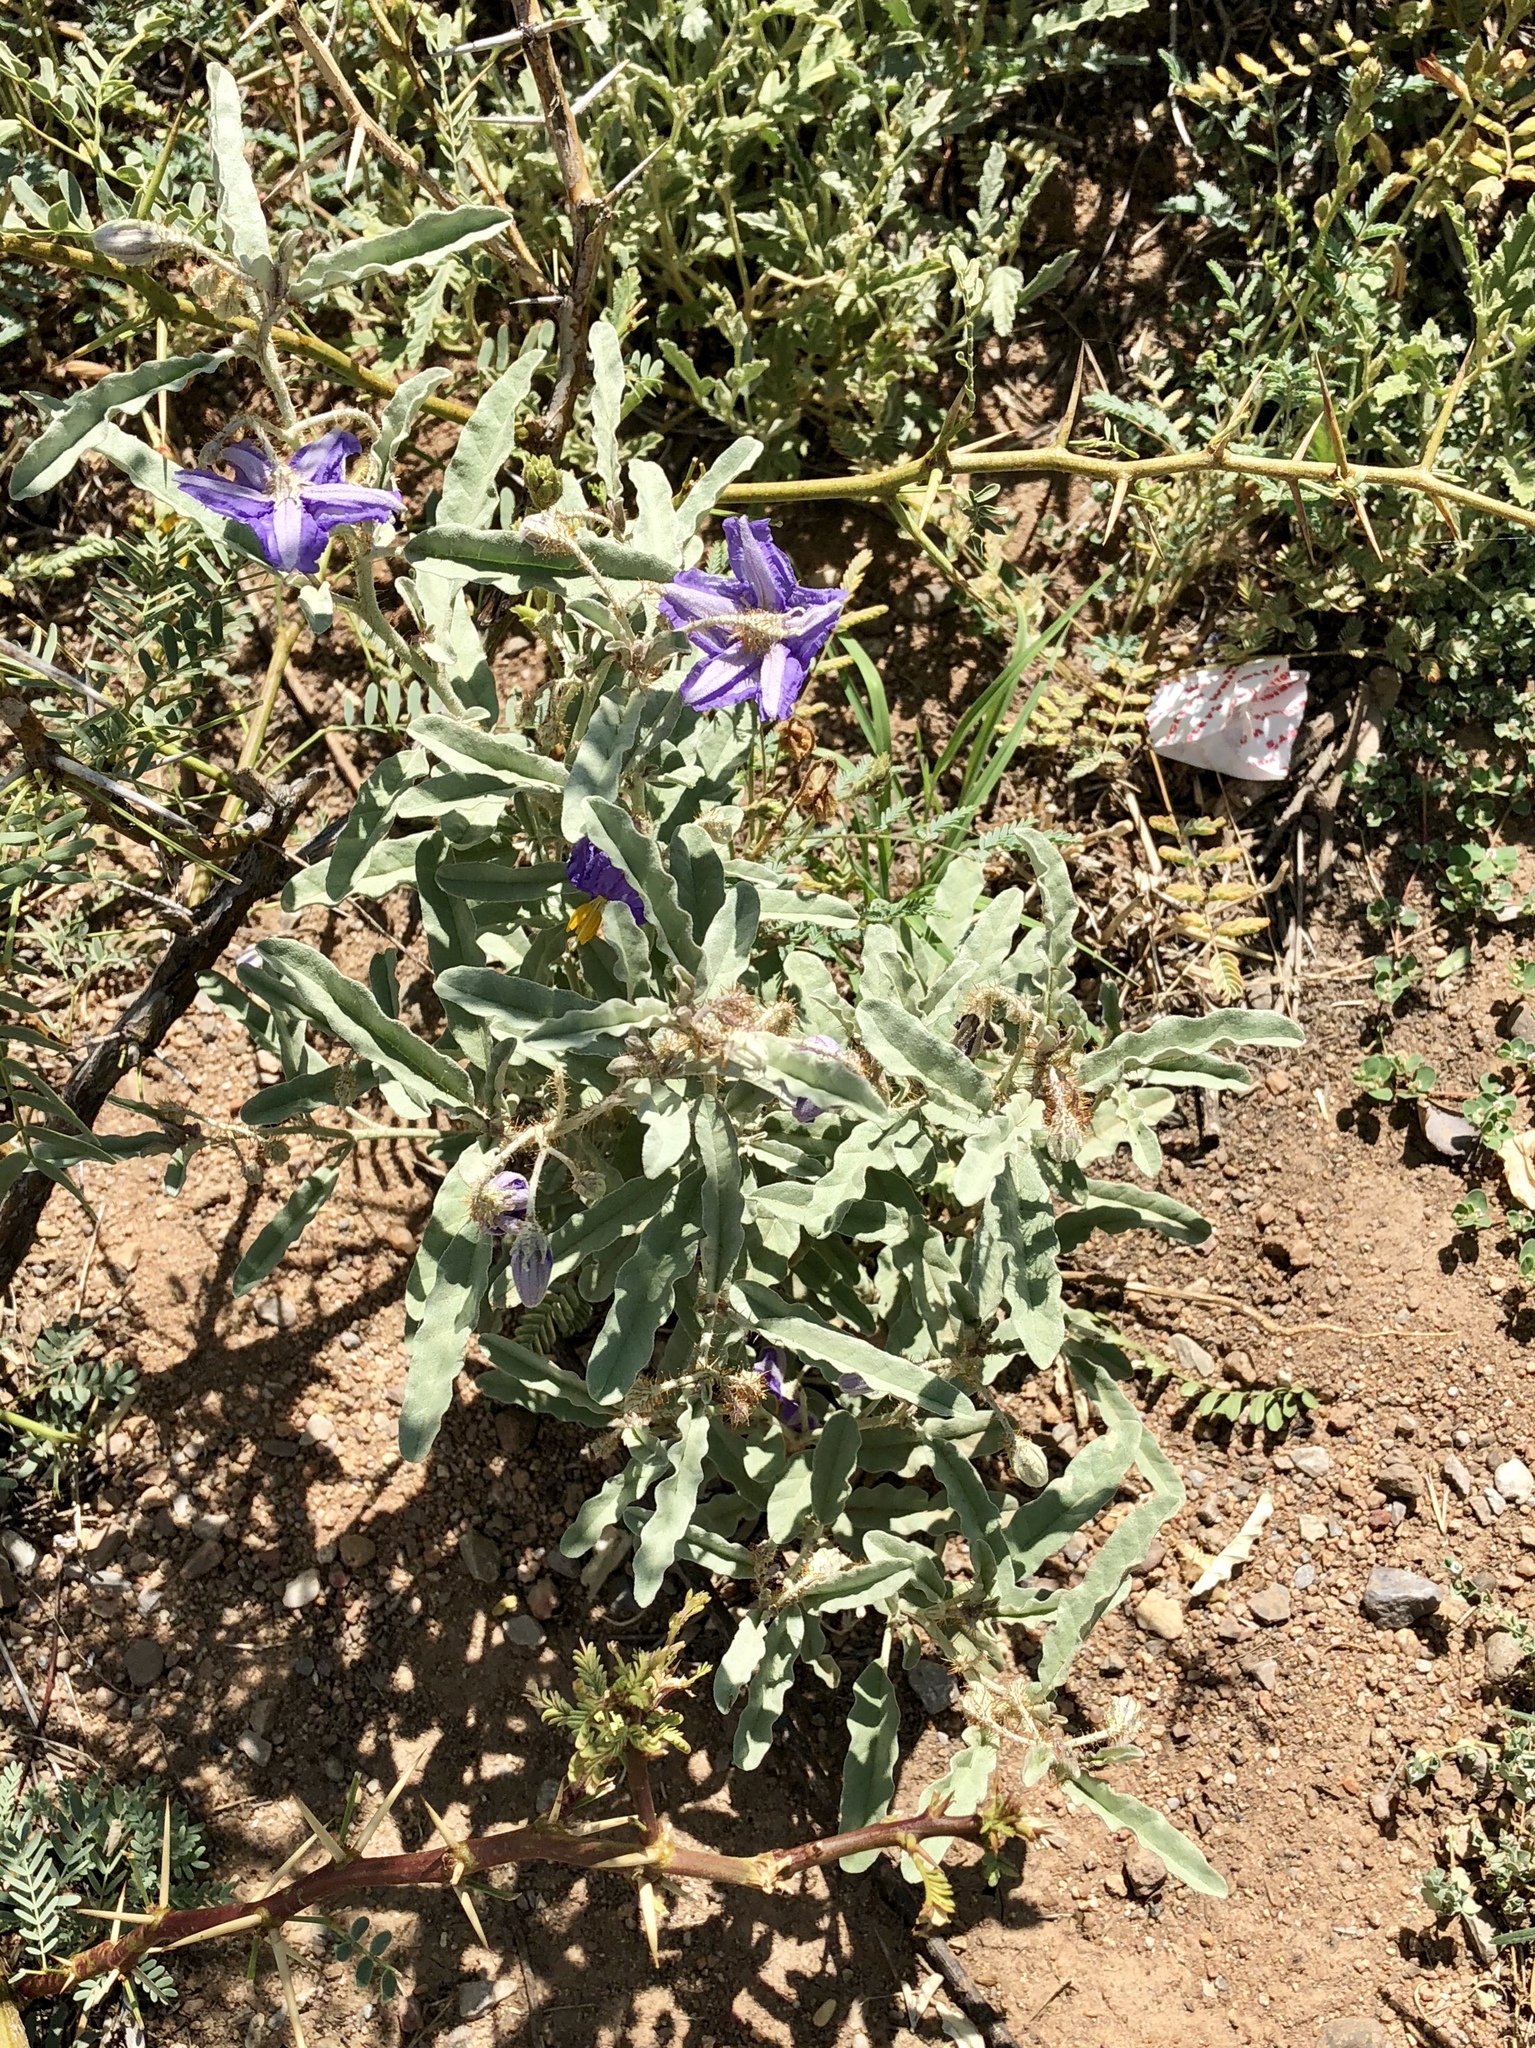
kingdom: Plantae
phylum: Tracheophyta
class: Magnoliopsida
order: Solanales
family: Solanaceae
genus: Solanum
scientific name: Solanum elaeagnifolium
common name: Silverleaf nightshade
